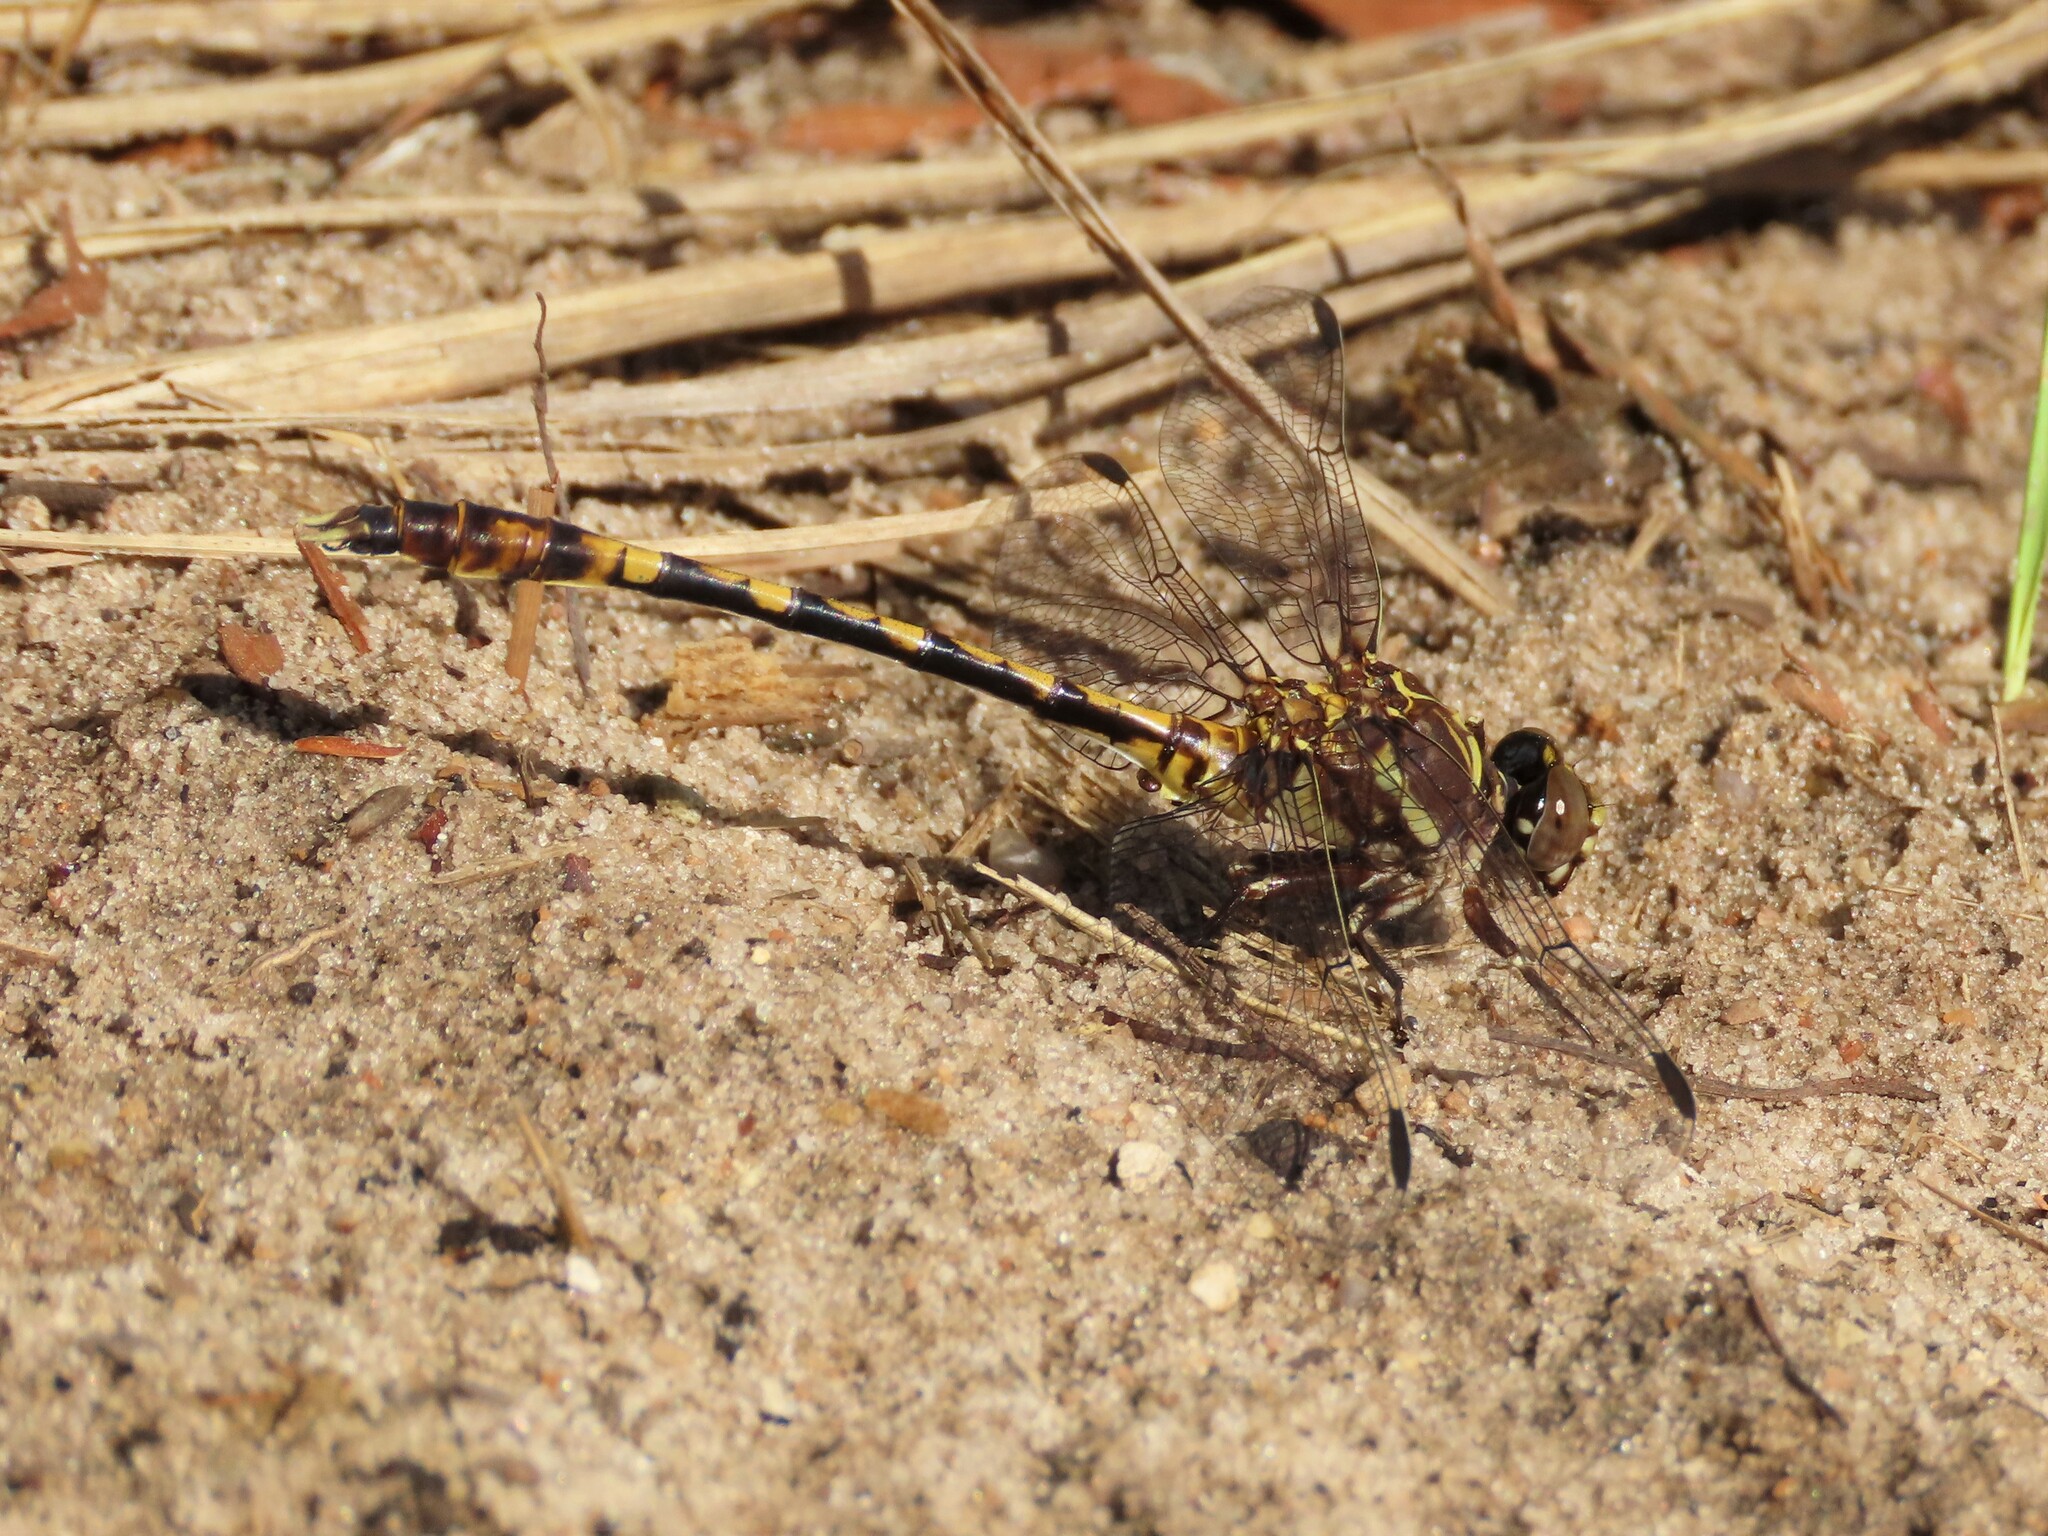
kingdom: Animalia
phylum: Arthropoda
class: Insecta
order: Odonata
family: Gomphidae
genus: Progomphus
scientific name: Progomphus alachuensis
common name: Tawny sanddragon
